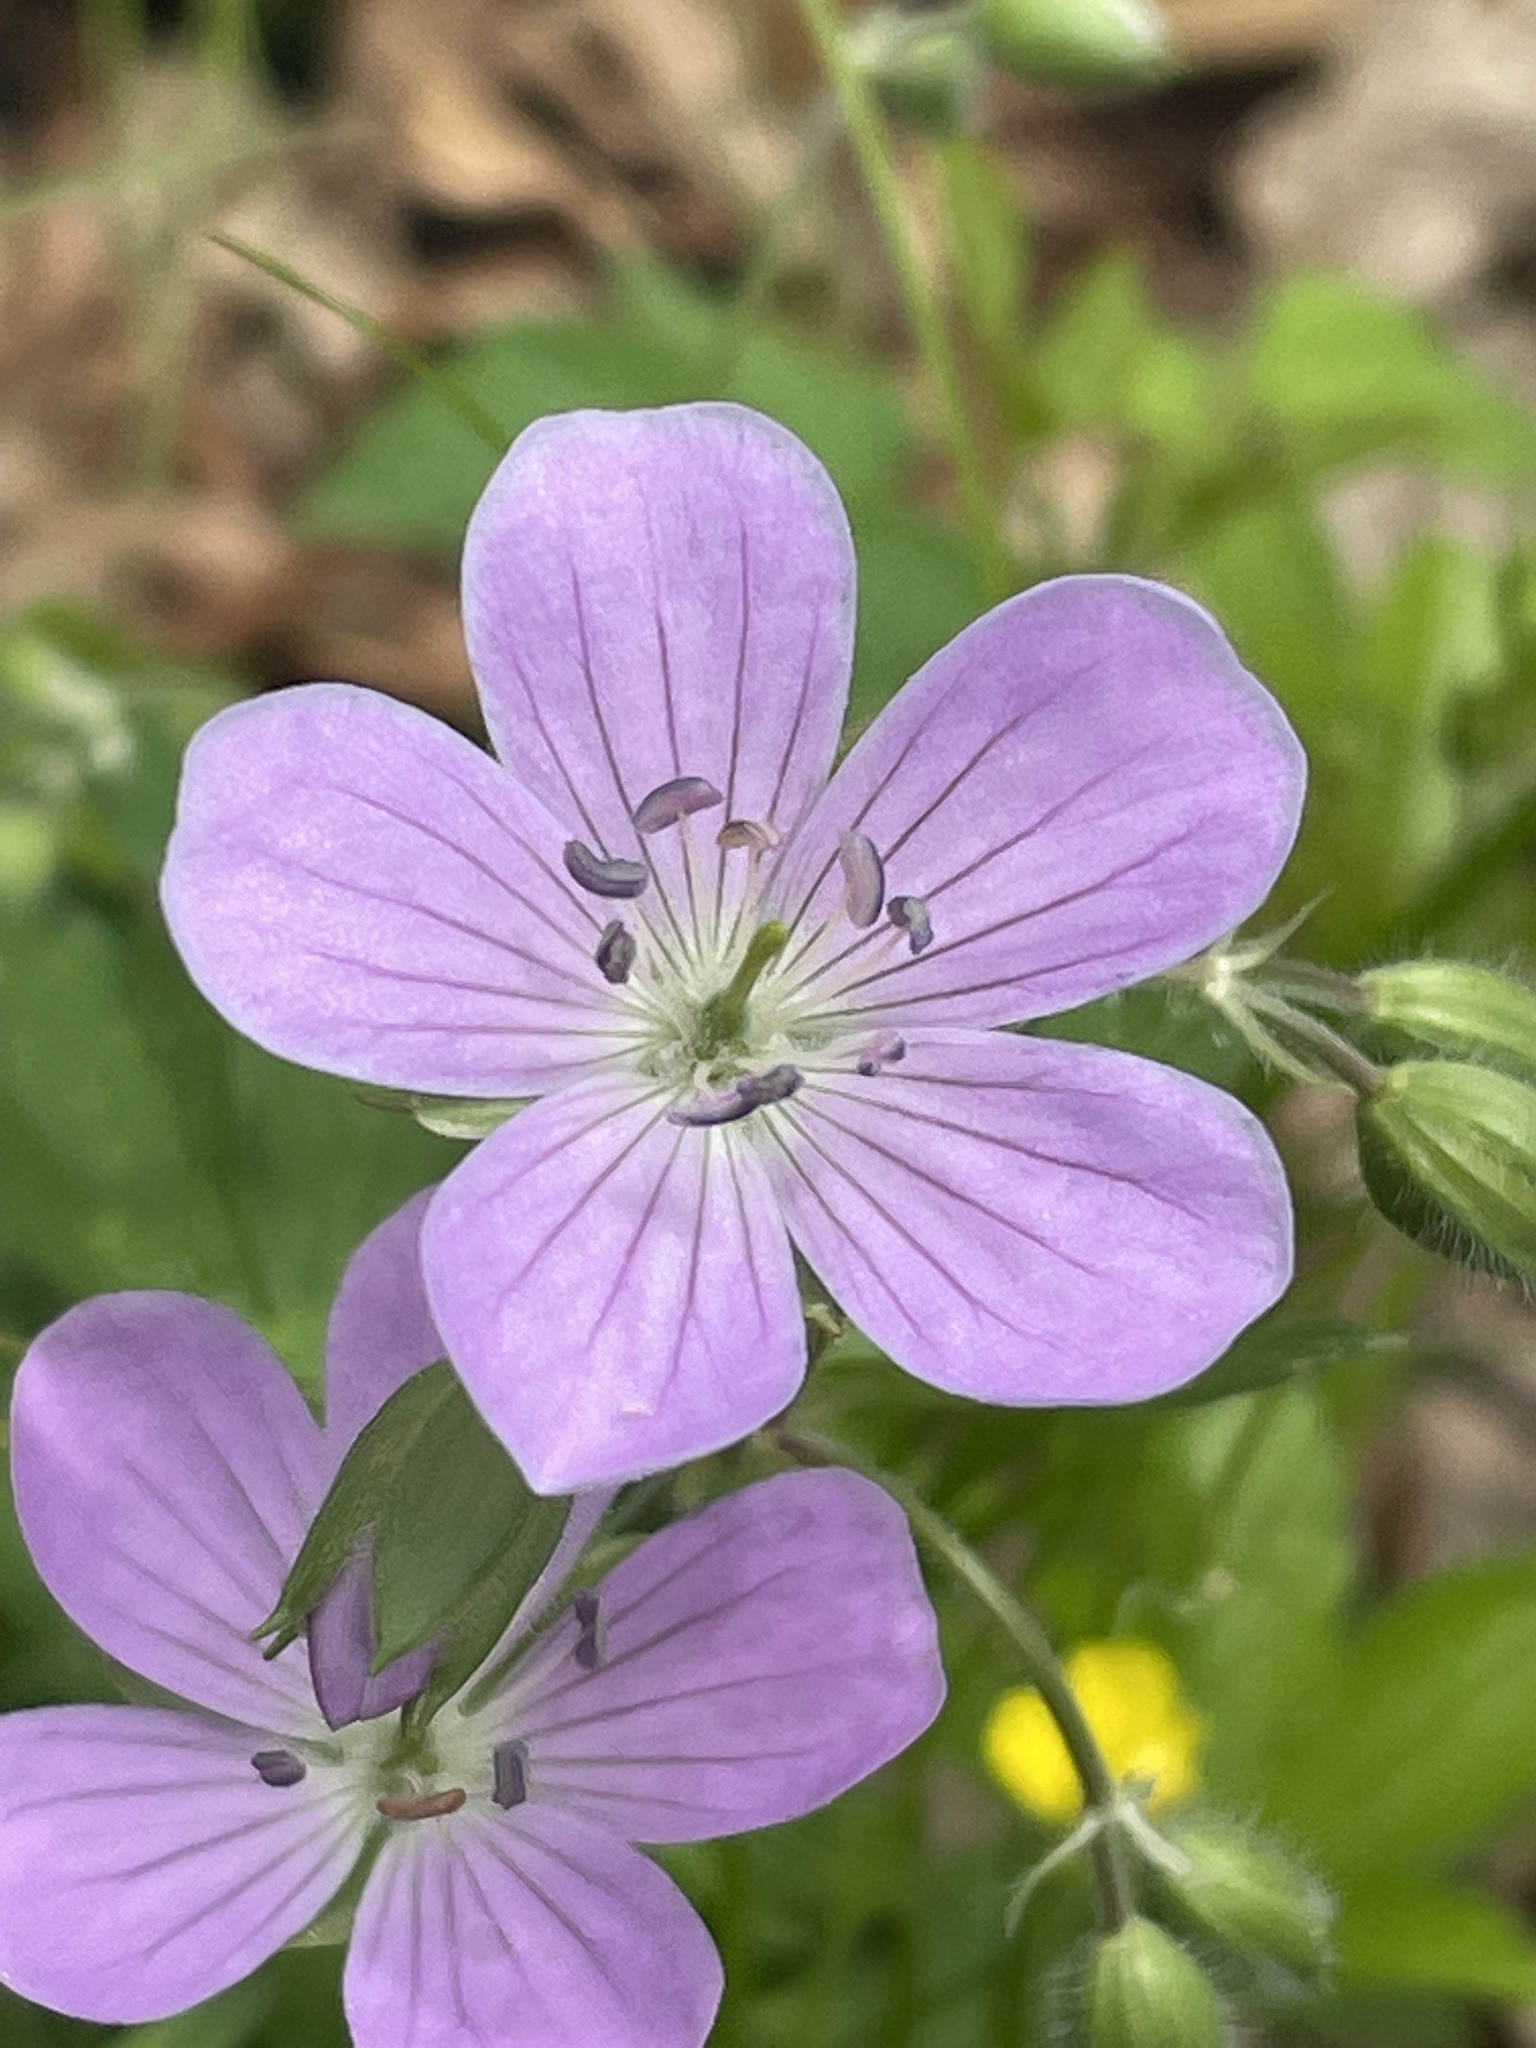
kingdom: Plantae
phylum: Tracheophyta
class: Magnoliopsida
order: Geraniales
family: Geraniaceae
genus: Geranium
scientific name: Geranium maculatum
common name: Spotted geranium
